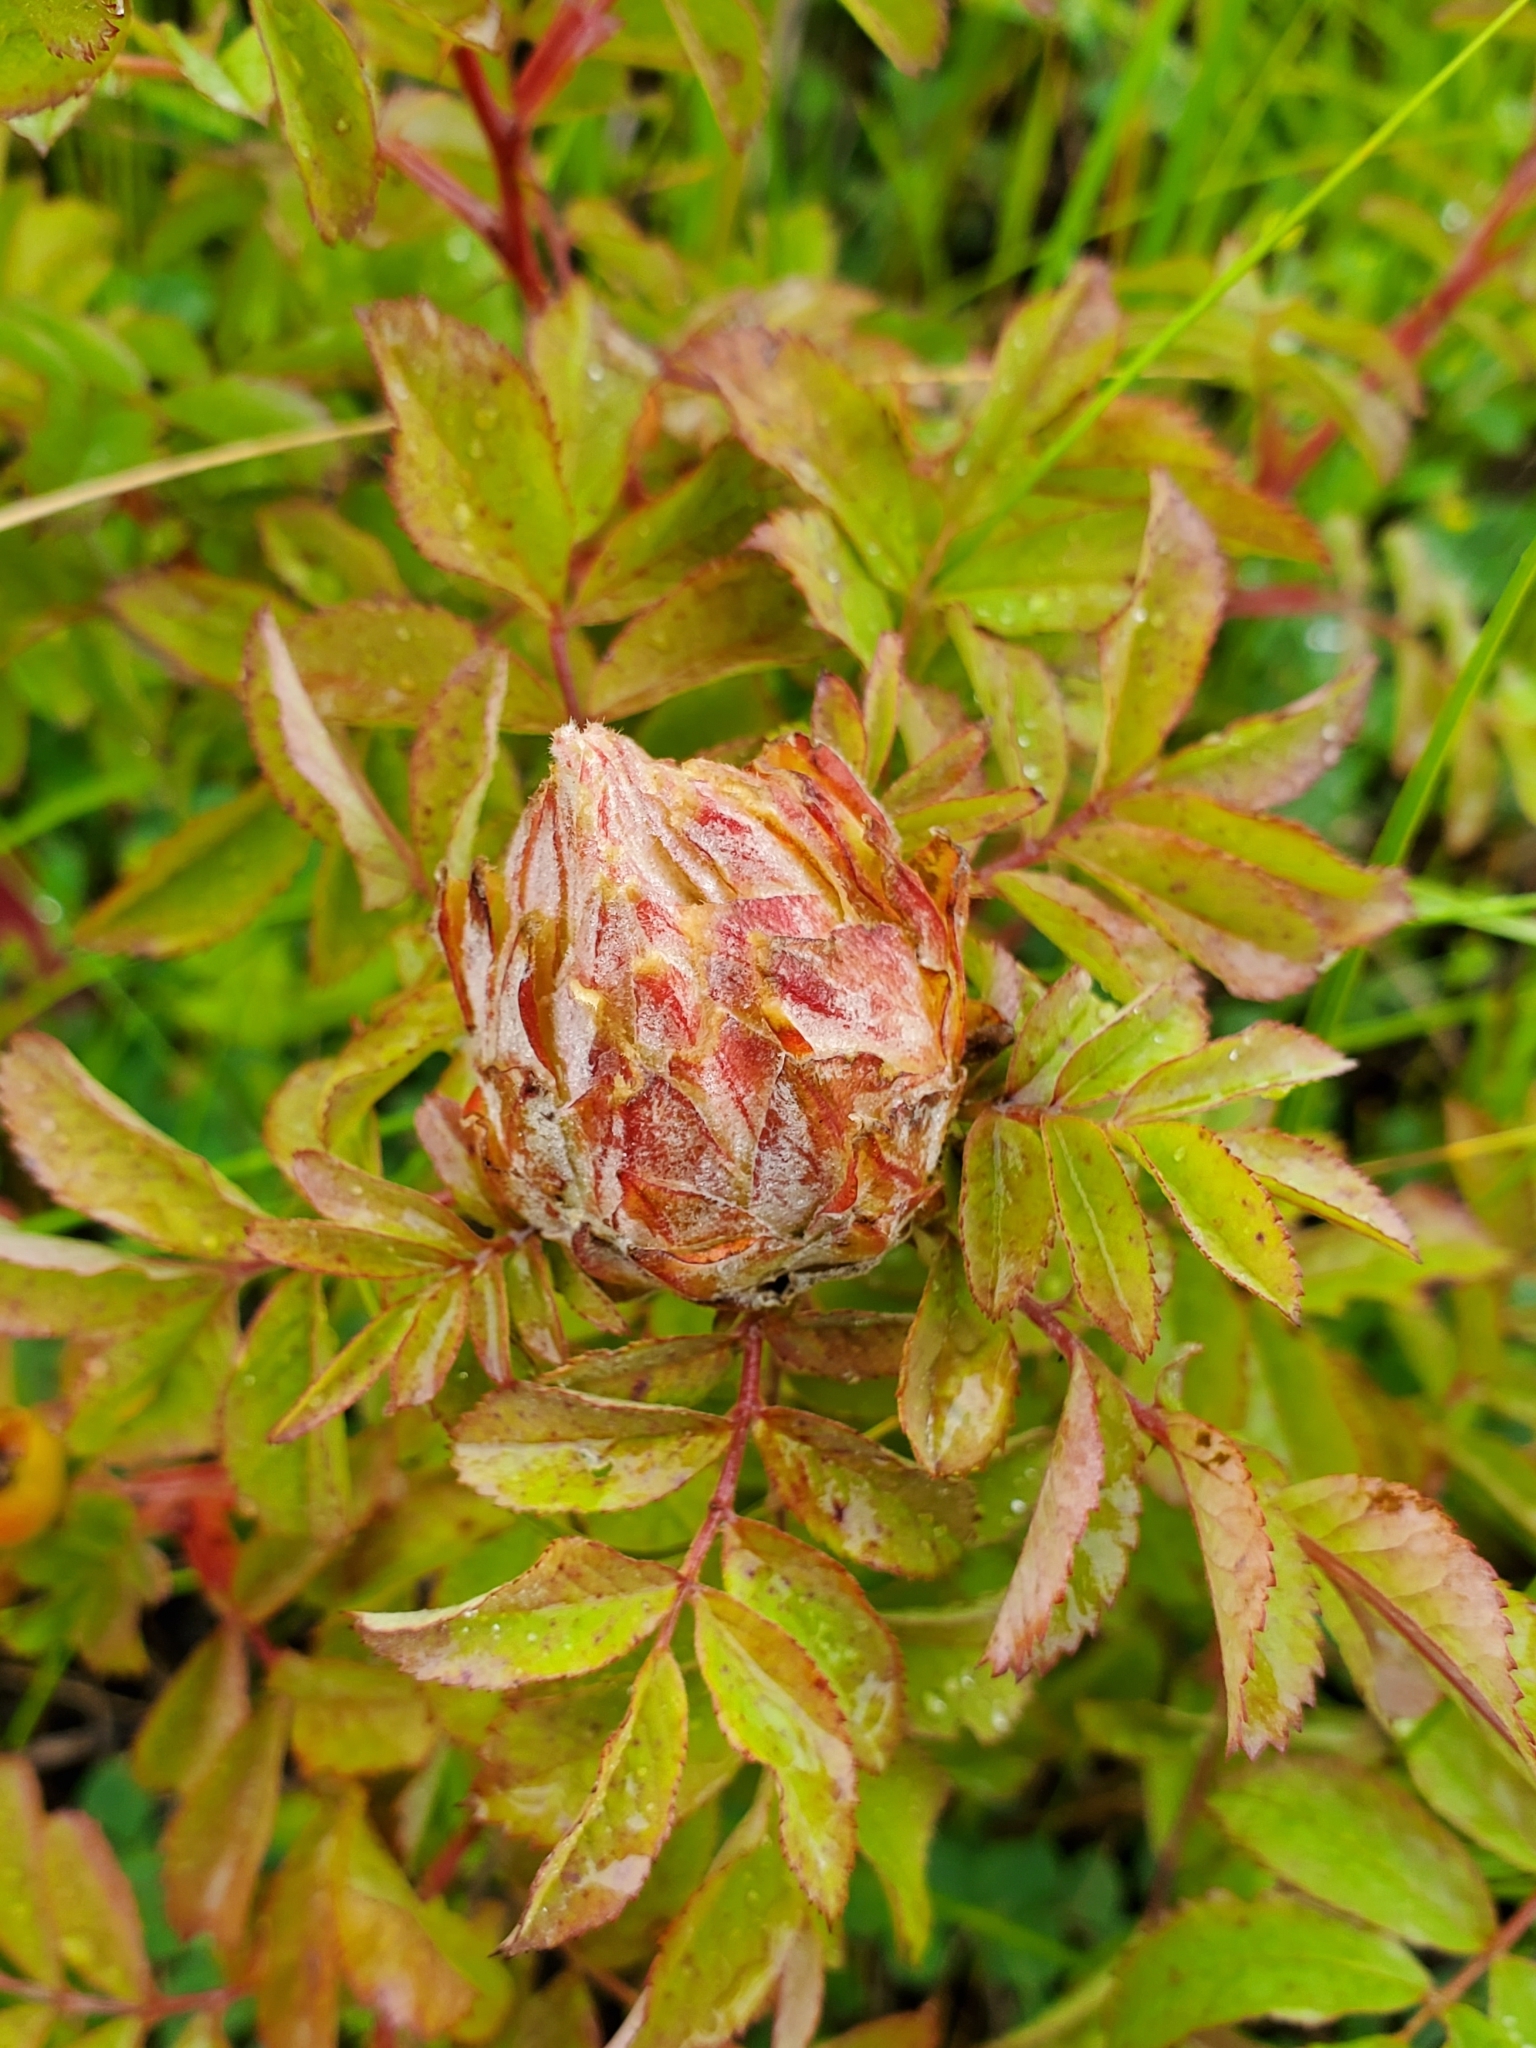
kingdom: Animalia
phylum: Arthropoda
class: Insecta
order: Diptera
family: Cecidomyiidae
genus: Rabdophaga
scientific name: Rabdophaga rosacea
